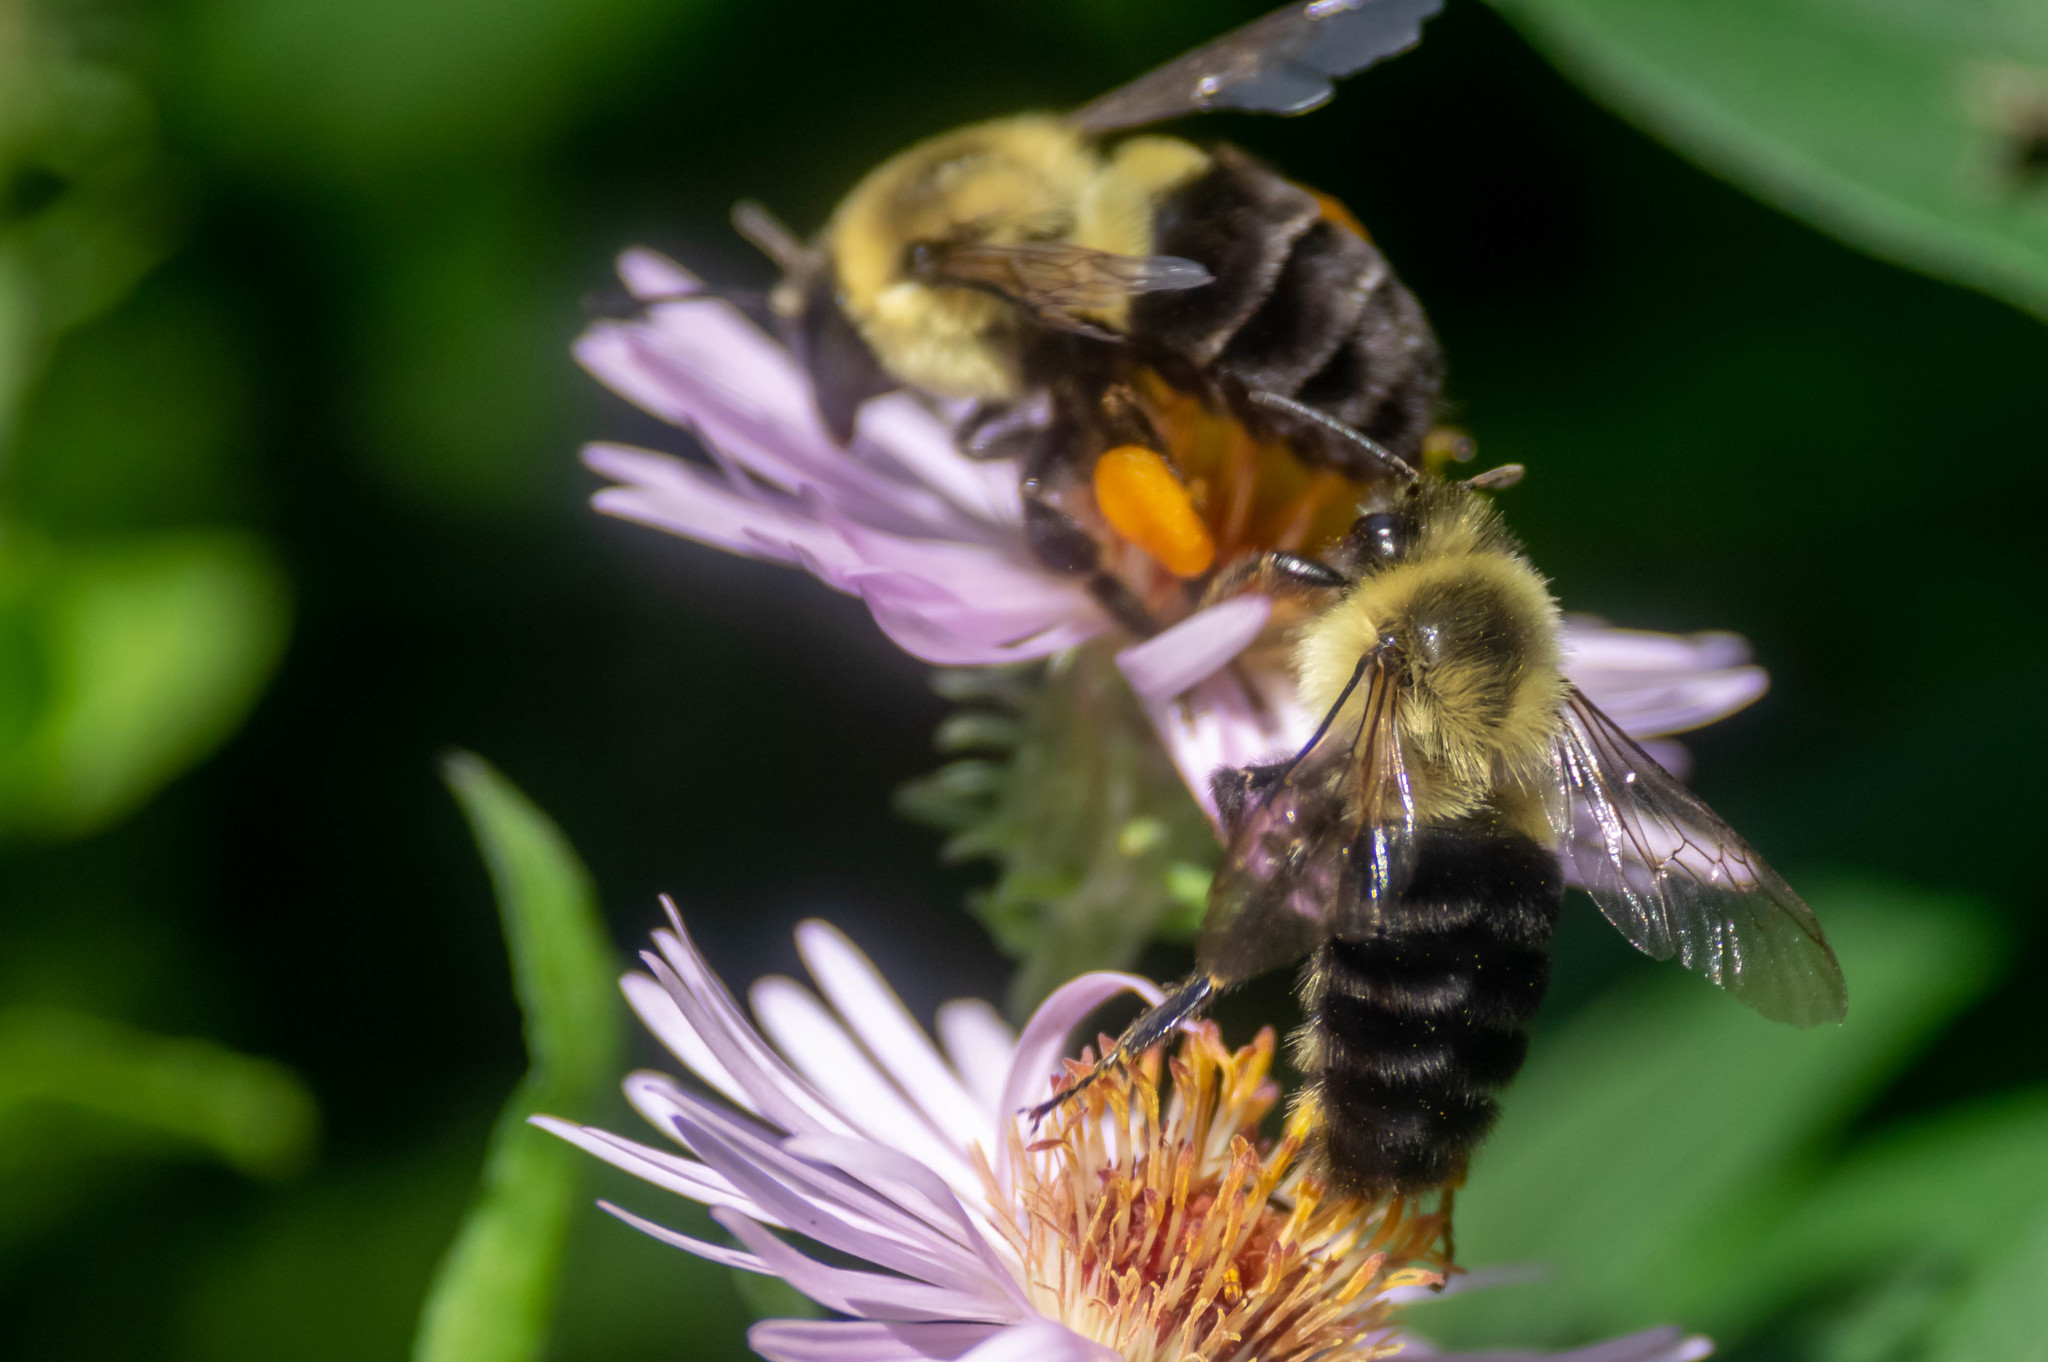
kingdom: Animalia
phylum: Arthropoda
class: Insecta
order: Hymenoptera
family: Apidae
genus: Bombus
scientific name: Bombus impatiens
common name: Common eastern bumble bee
